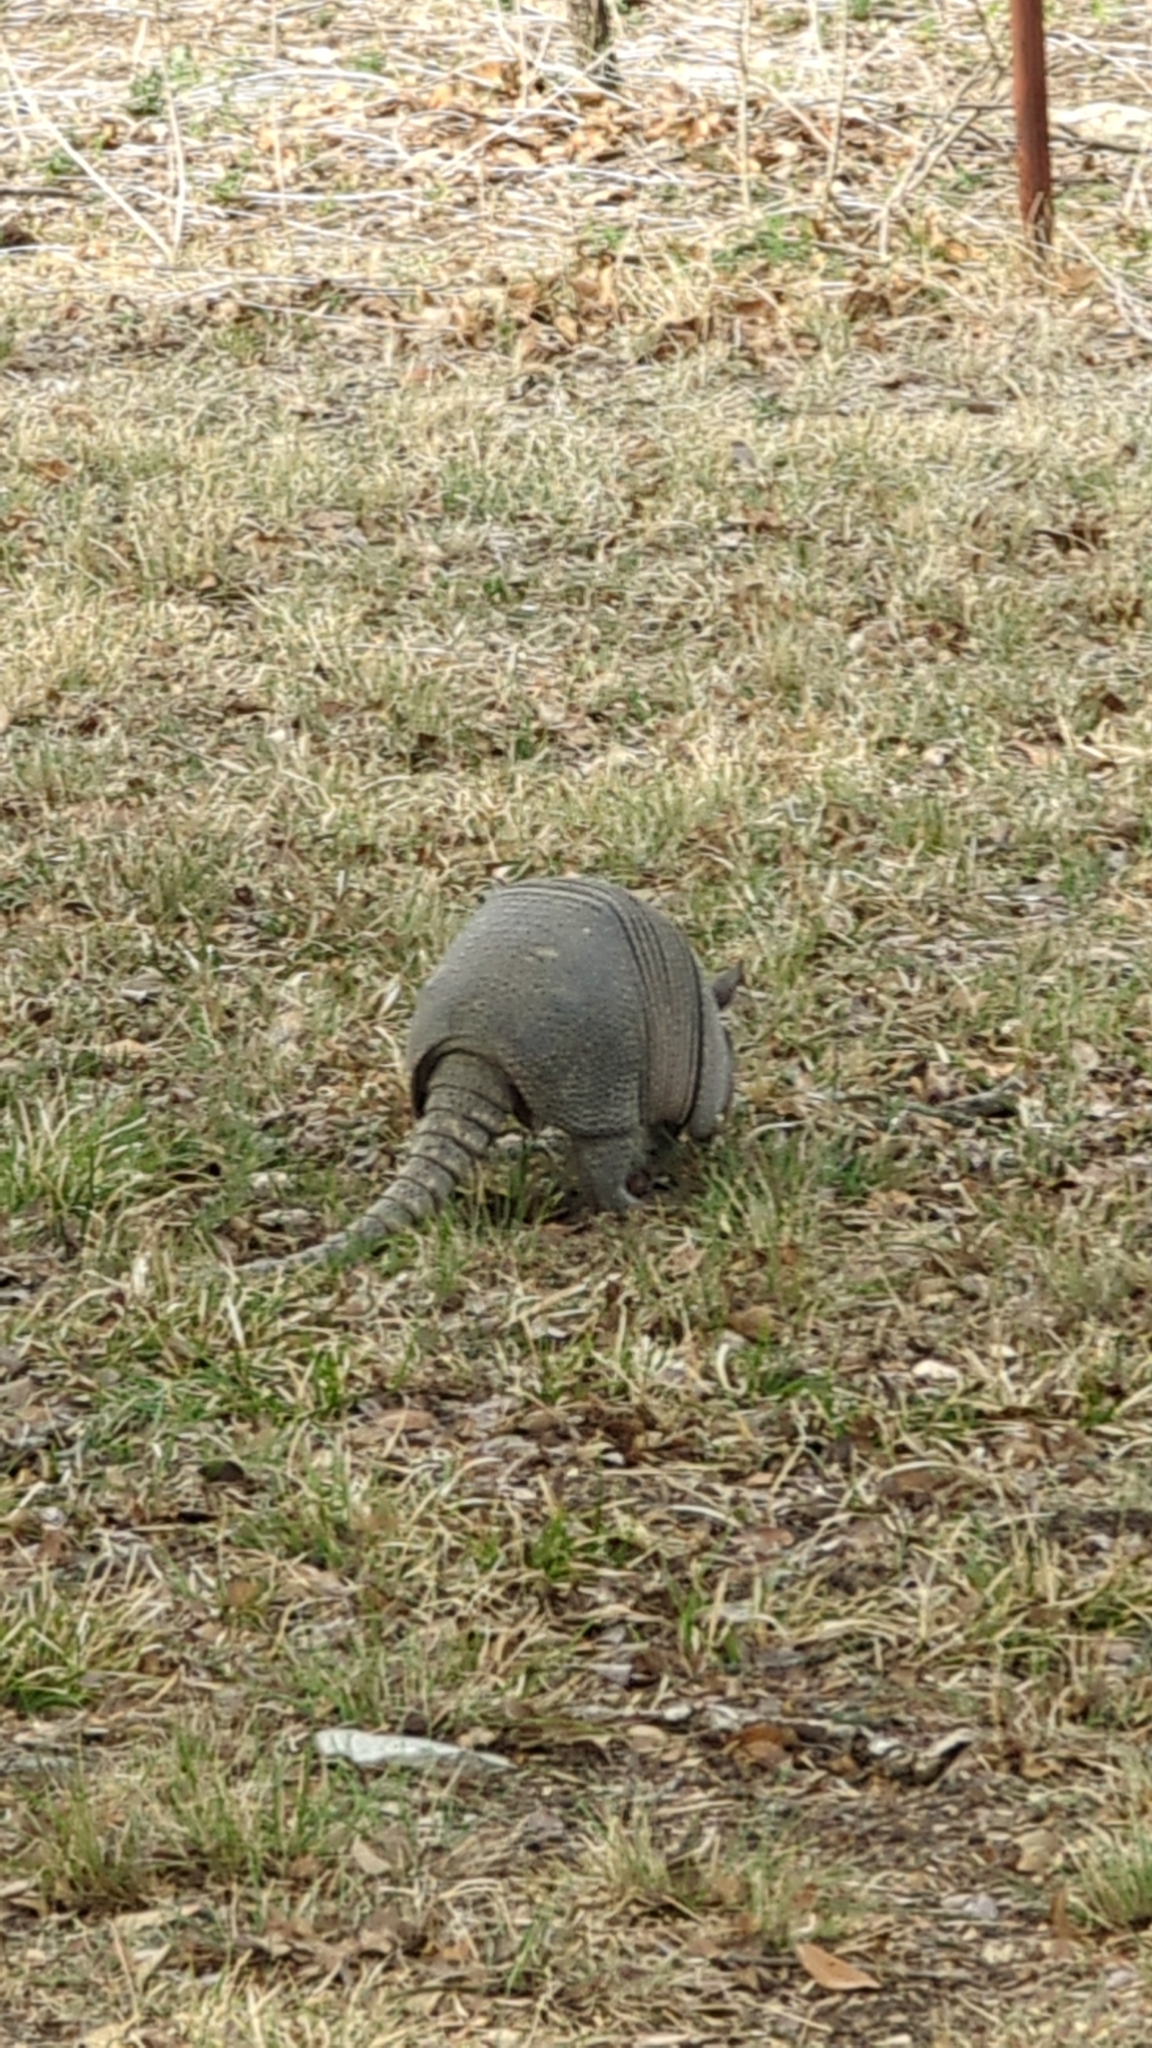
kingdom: Animalia
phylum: Chordata
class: Mammalia
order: Cingulata
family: Dasypodidae
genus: Dasypus
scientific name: Dasypus novemcinctus
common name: Nine-banded armadillo
